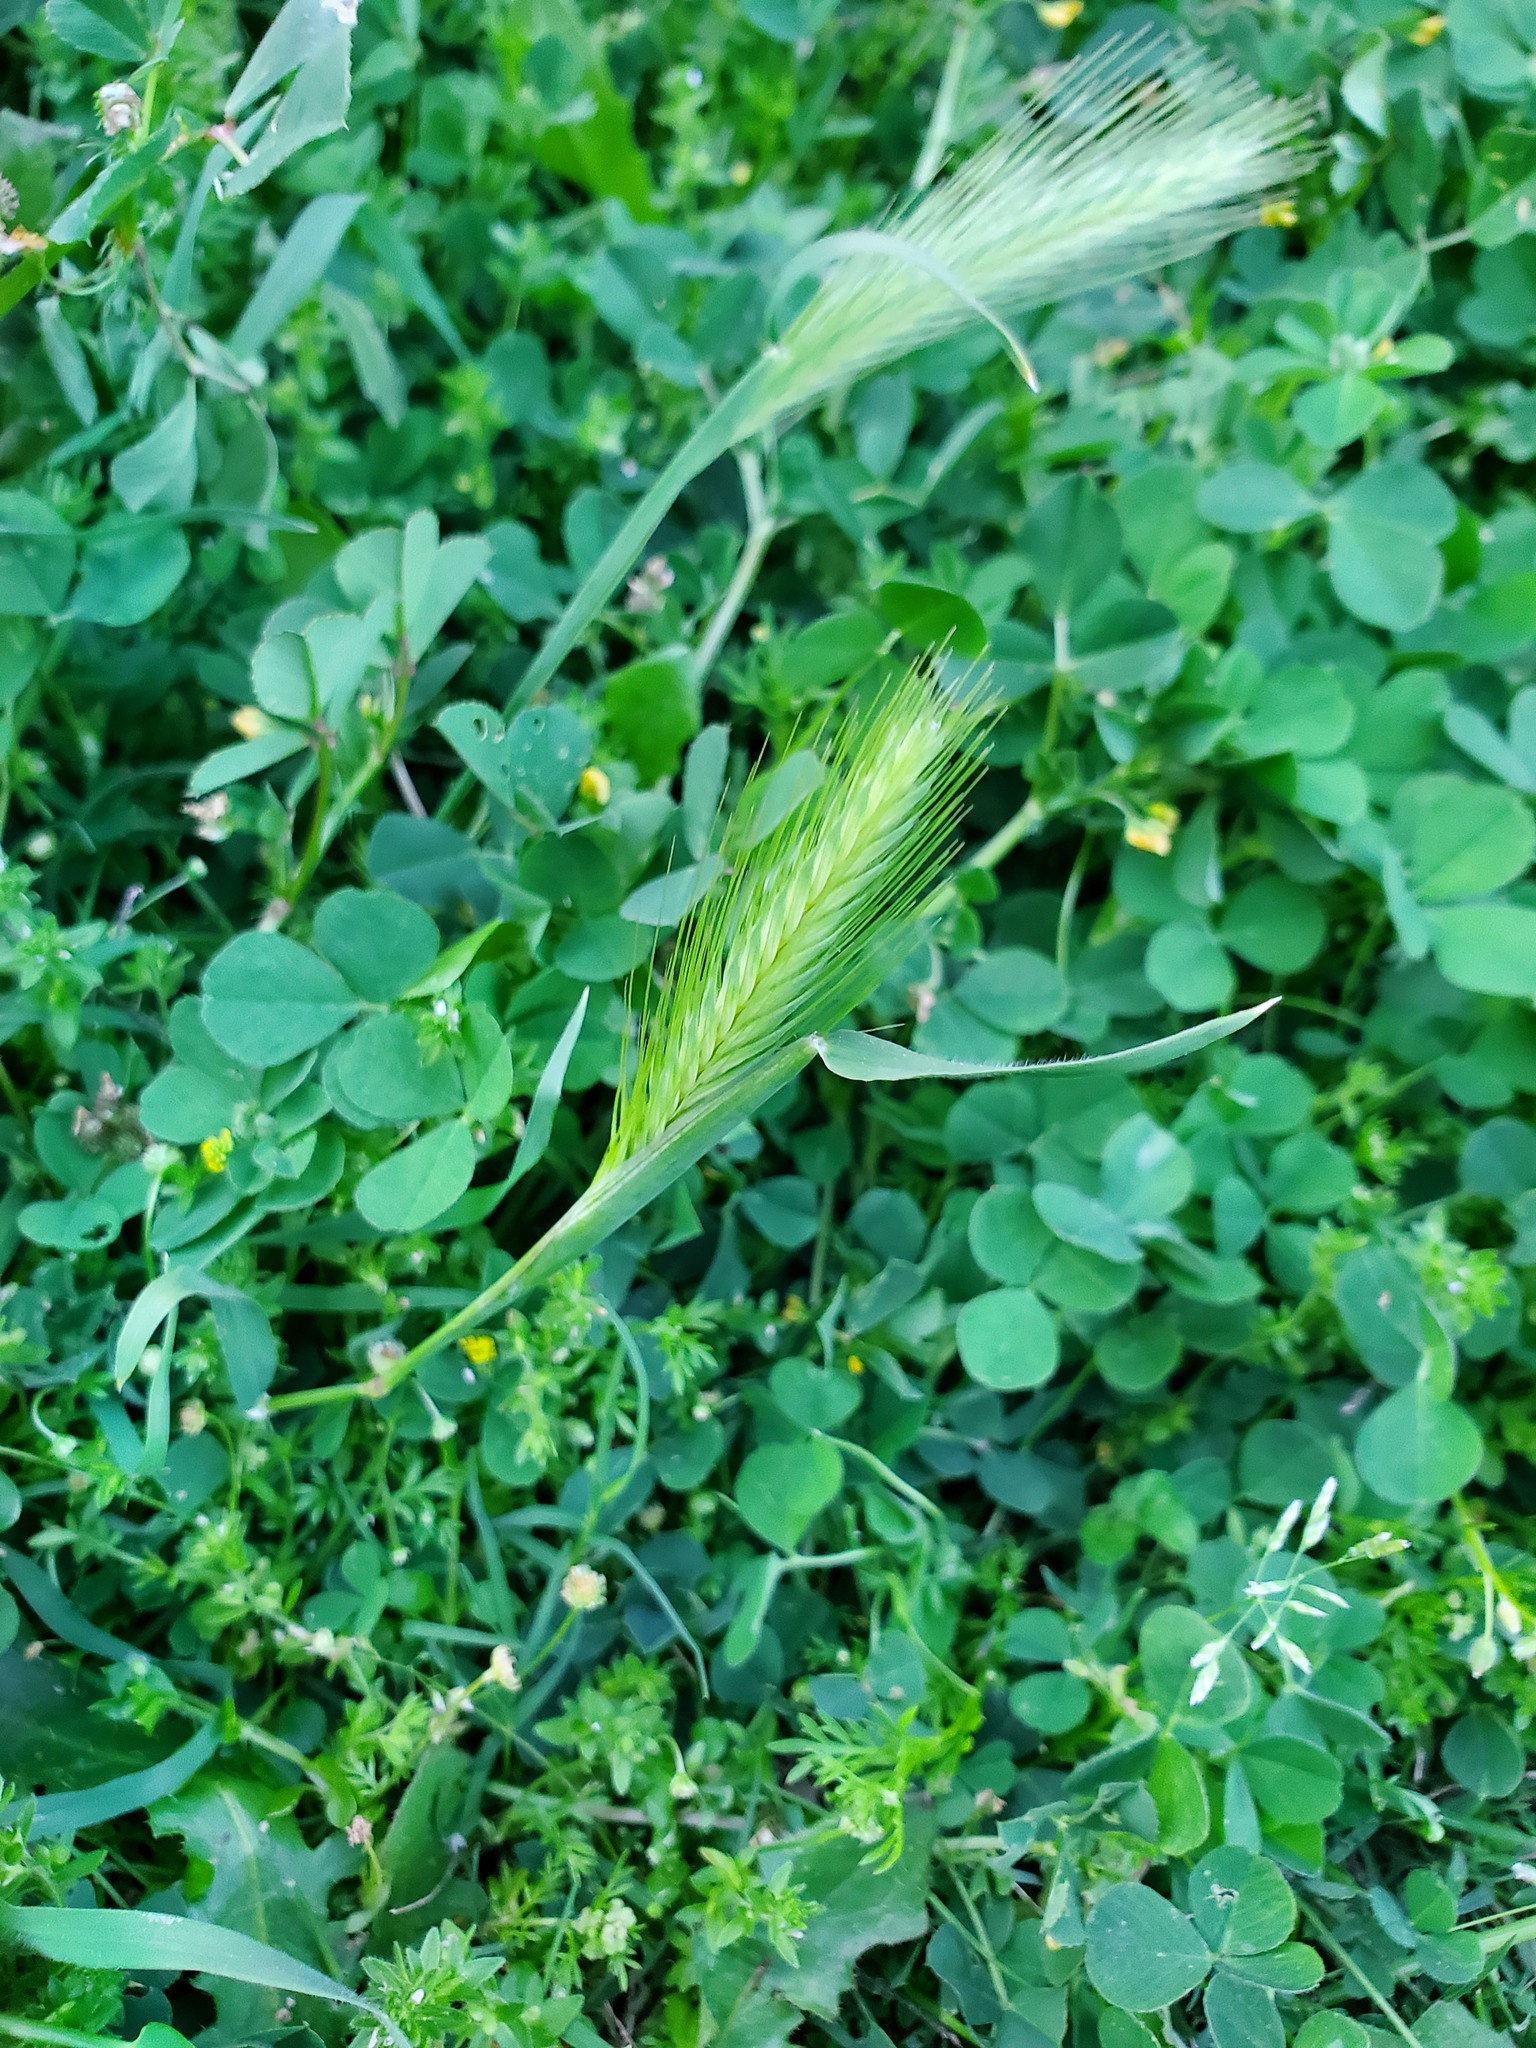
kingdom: Plantae
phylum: Tracheophyta
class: Liliopsida
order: Poales
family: Poaceae
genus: Hordeum
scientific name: Hordeum murinum
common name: Wall barley
